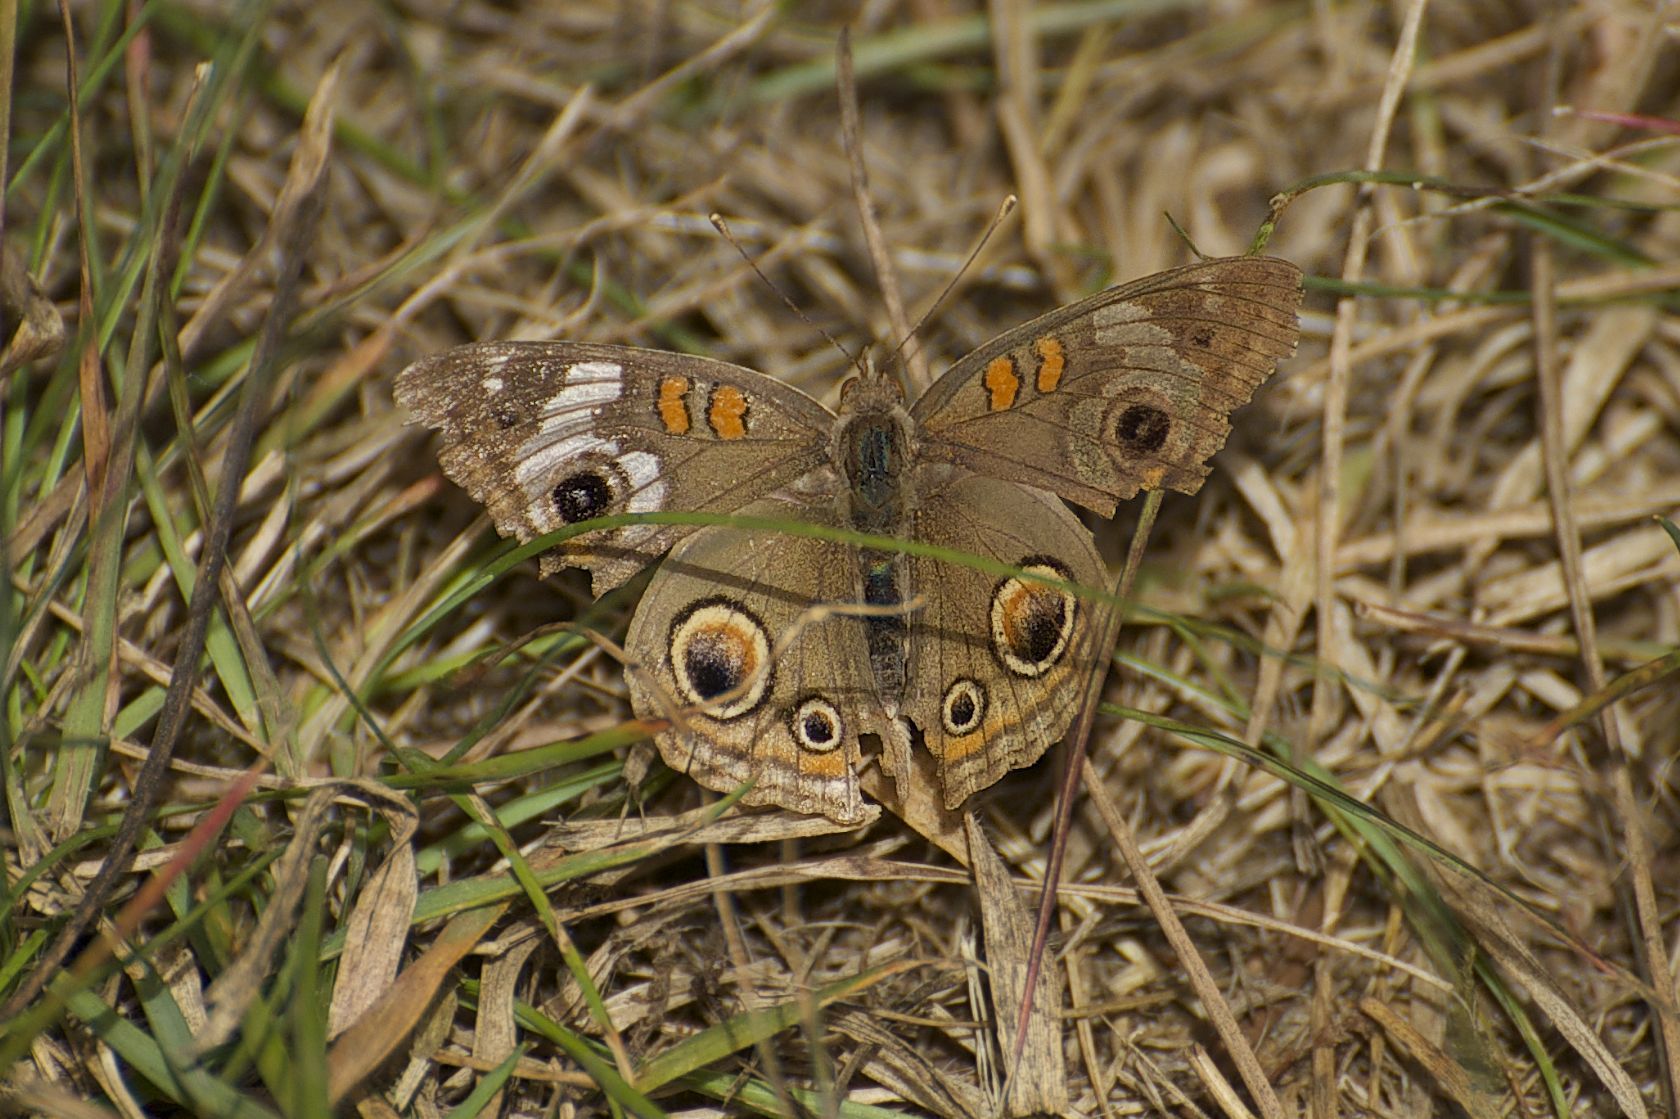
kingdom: Animalia
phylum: Arthropoda
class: Insecta
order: Lepidoptera
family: Nymphalidae
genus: Junonia
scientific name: Junonia grisea
